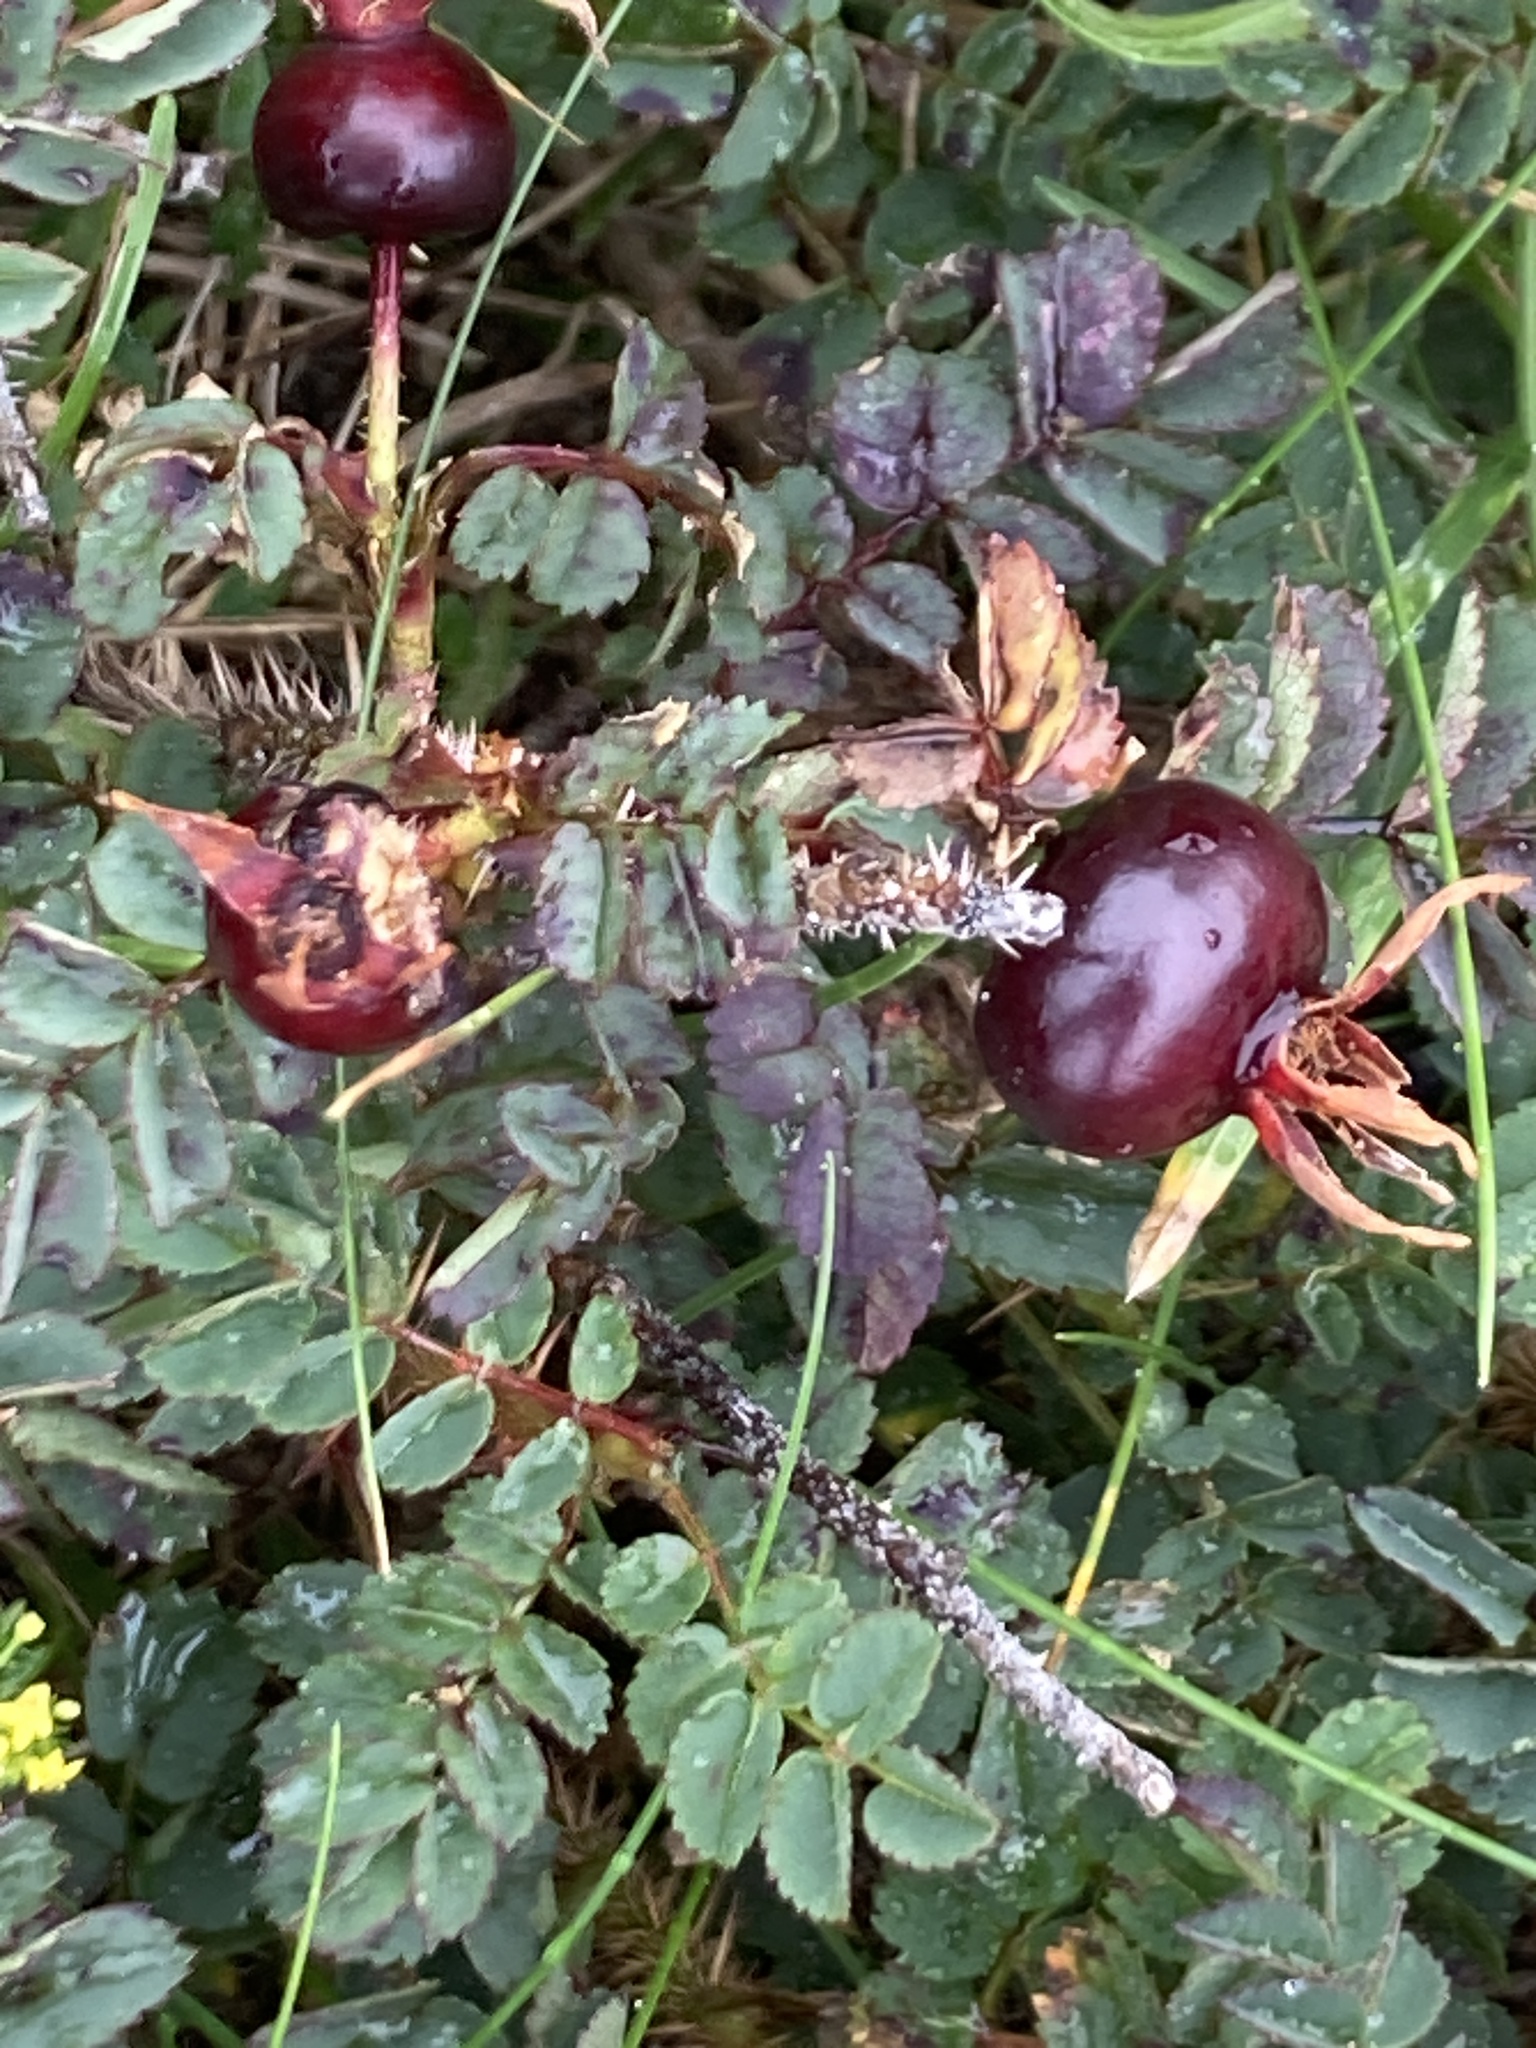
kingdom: Plantae
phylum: Tracheophyta
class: Magnoliopsida
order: Rosales
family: Rosaceae
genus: Rosa
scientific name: Rosa spinosissima
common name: Burnet rose
